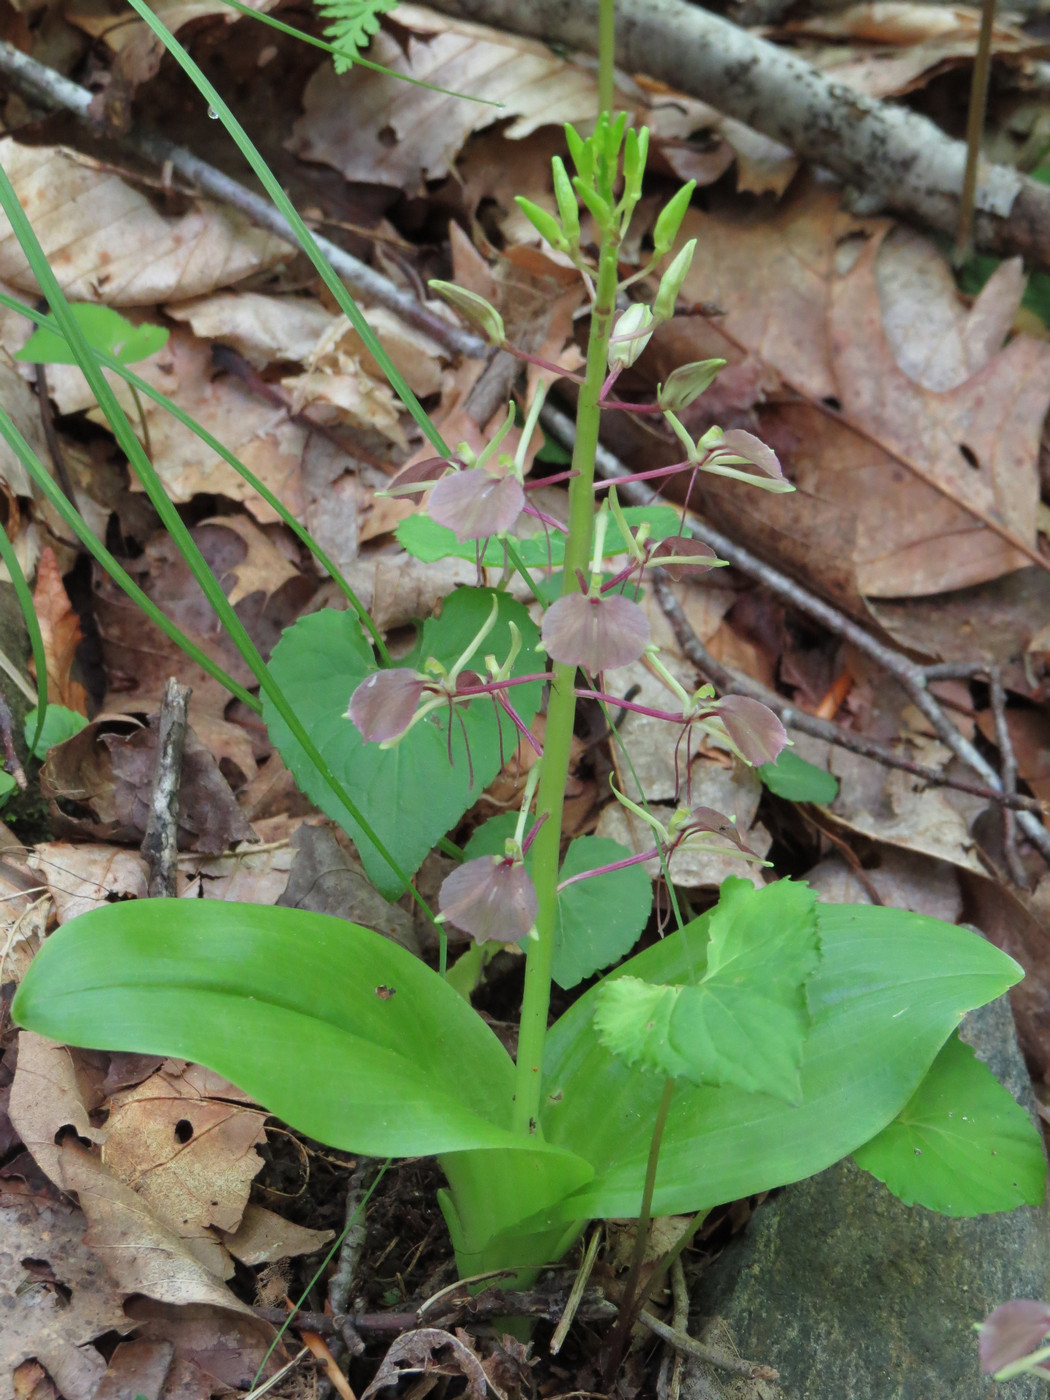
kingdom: Plantae
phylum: Tracheophyta
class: Liliopsida
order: Asparagales
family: Orchidaceae
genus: Liparis
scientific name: Liparis liliifolia
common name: Brown wide-lip orchid
